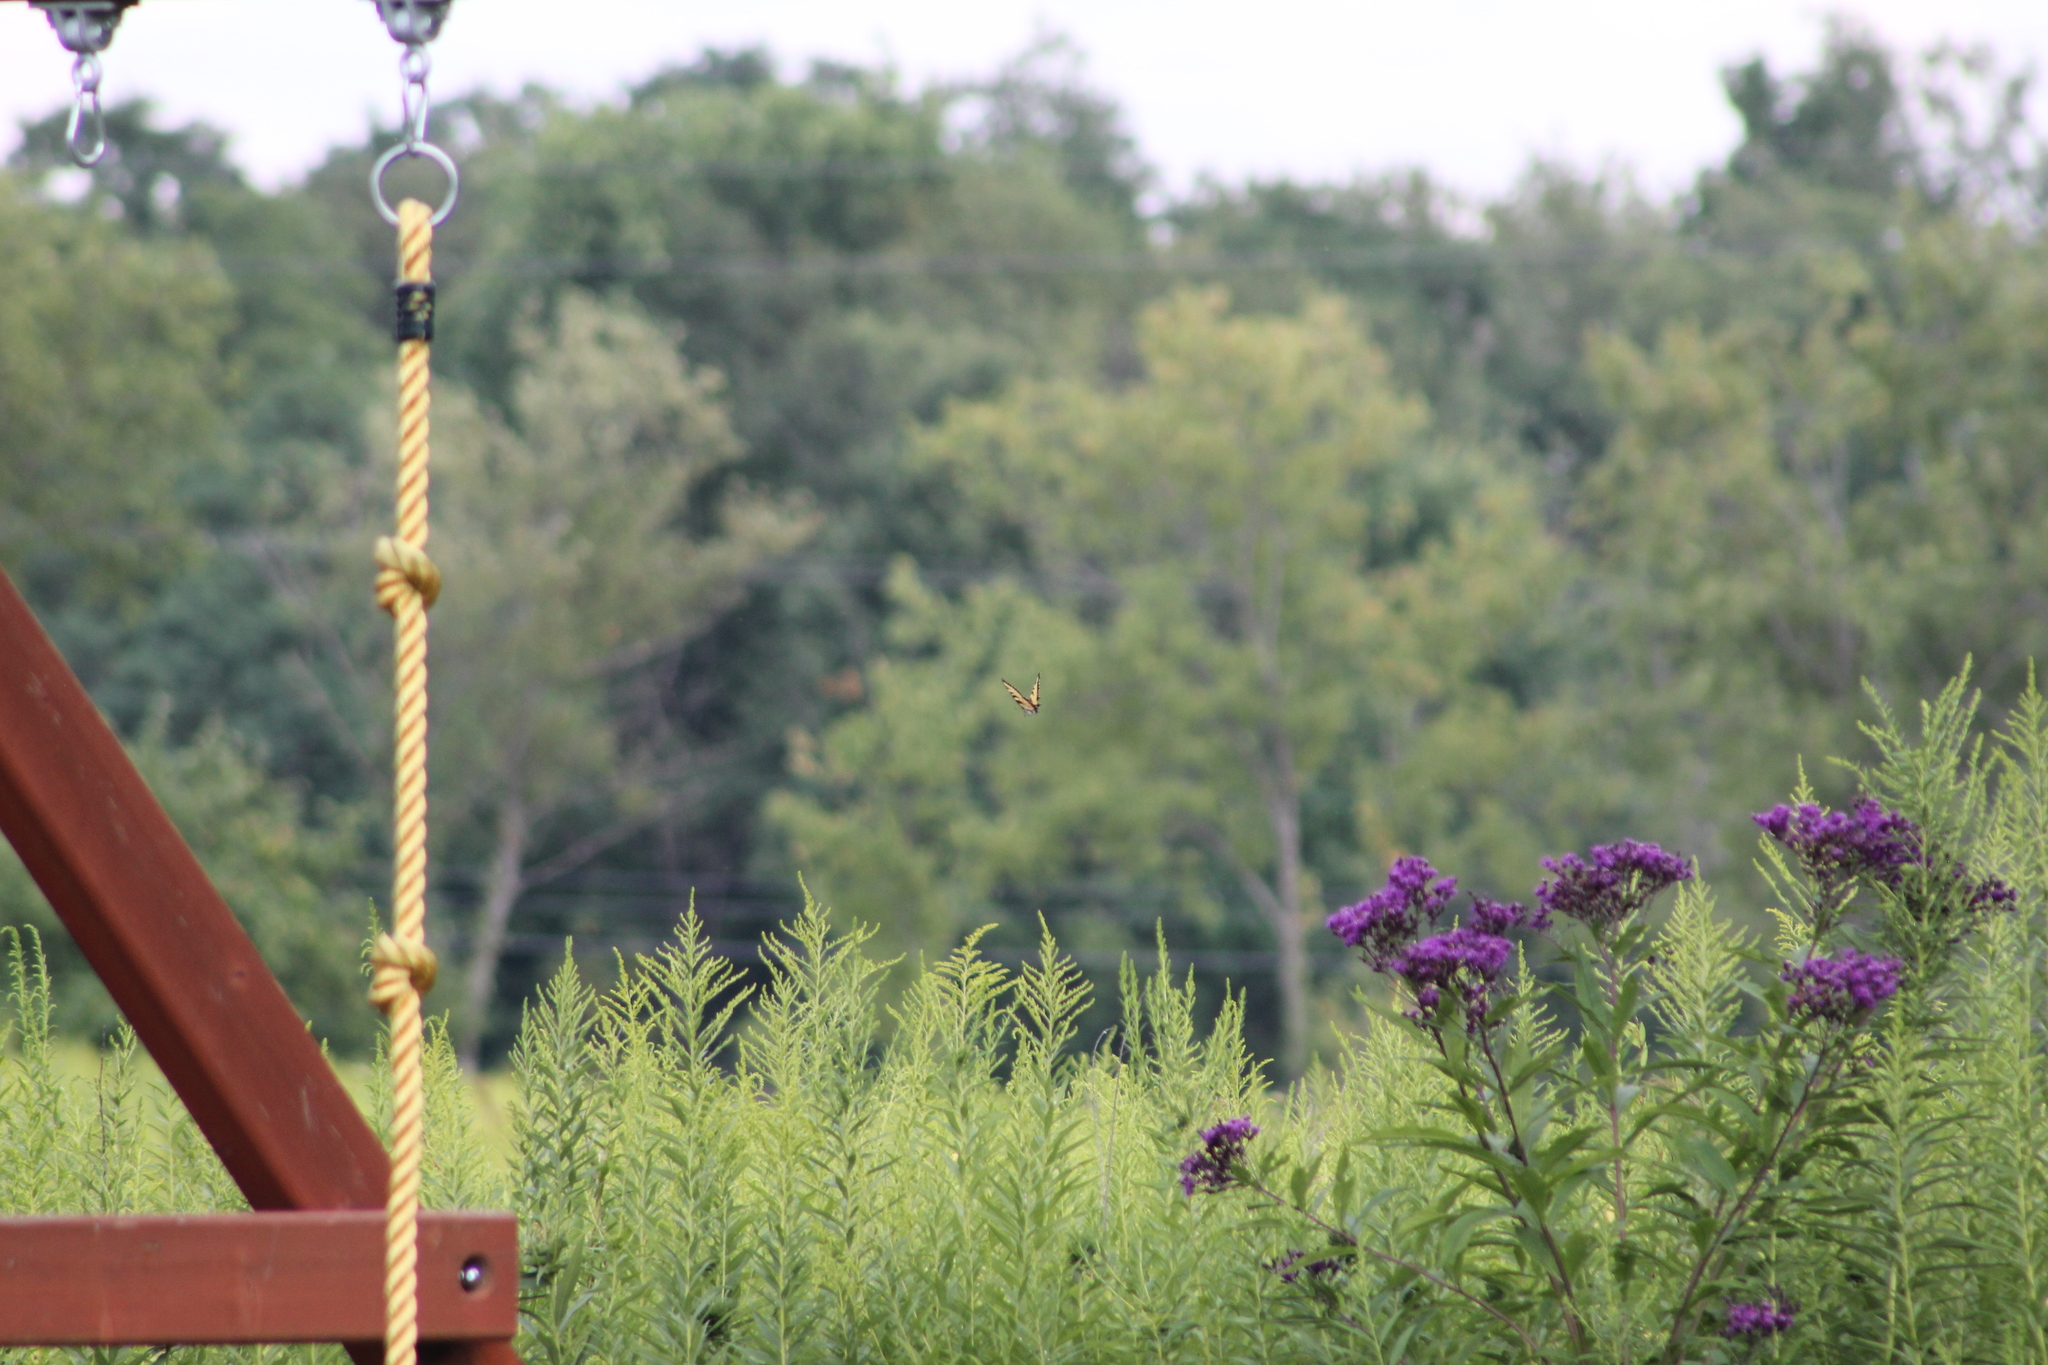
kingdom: Animalia
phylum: Arthropoda
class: Insecta
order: Lepidoptera
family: Papilionidae
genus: Papilio
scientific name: Papilio glaucus
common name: Tiger swallowtail
